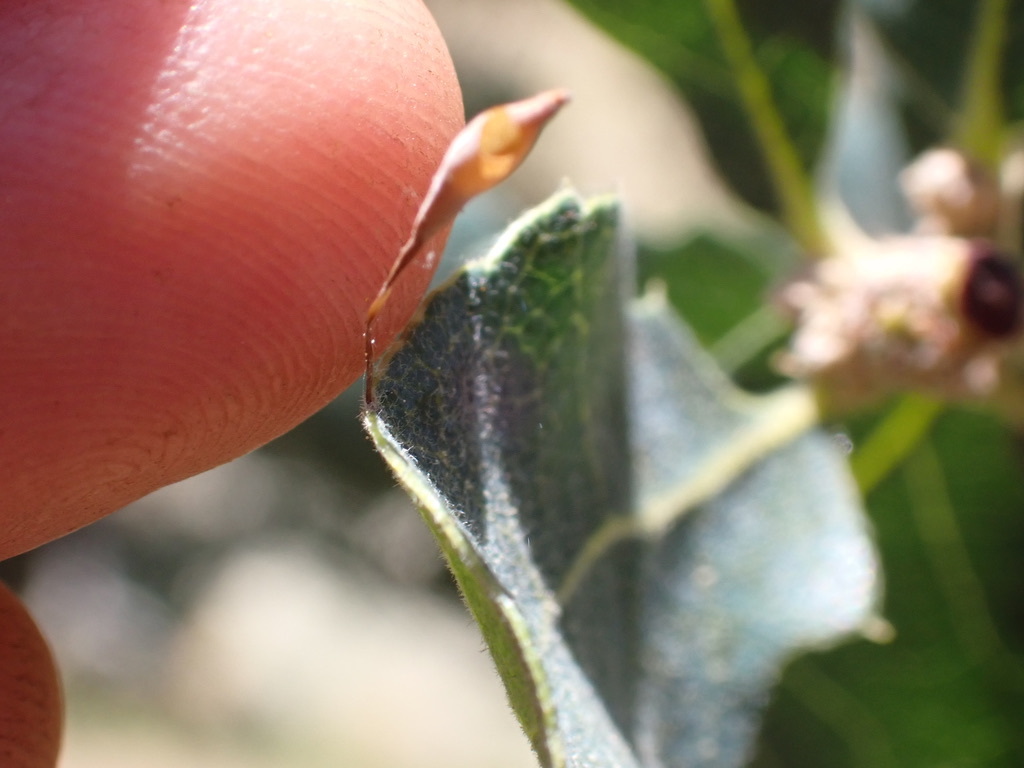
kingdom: Animalia
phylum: Arthropoda
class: Insecta
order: Hymenoptera
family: Cynipidae
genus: Andricus
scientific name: Andricus
